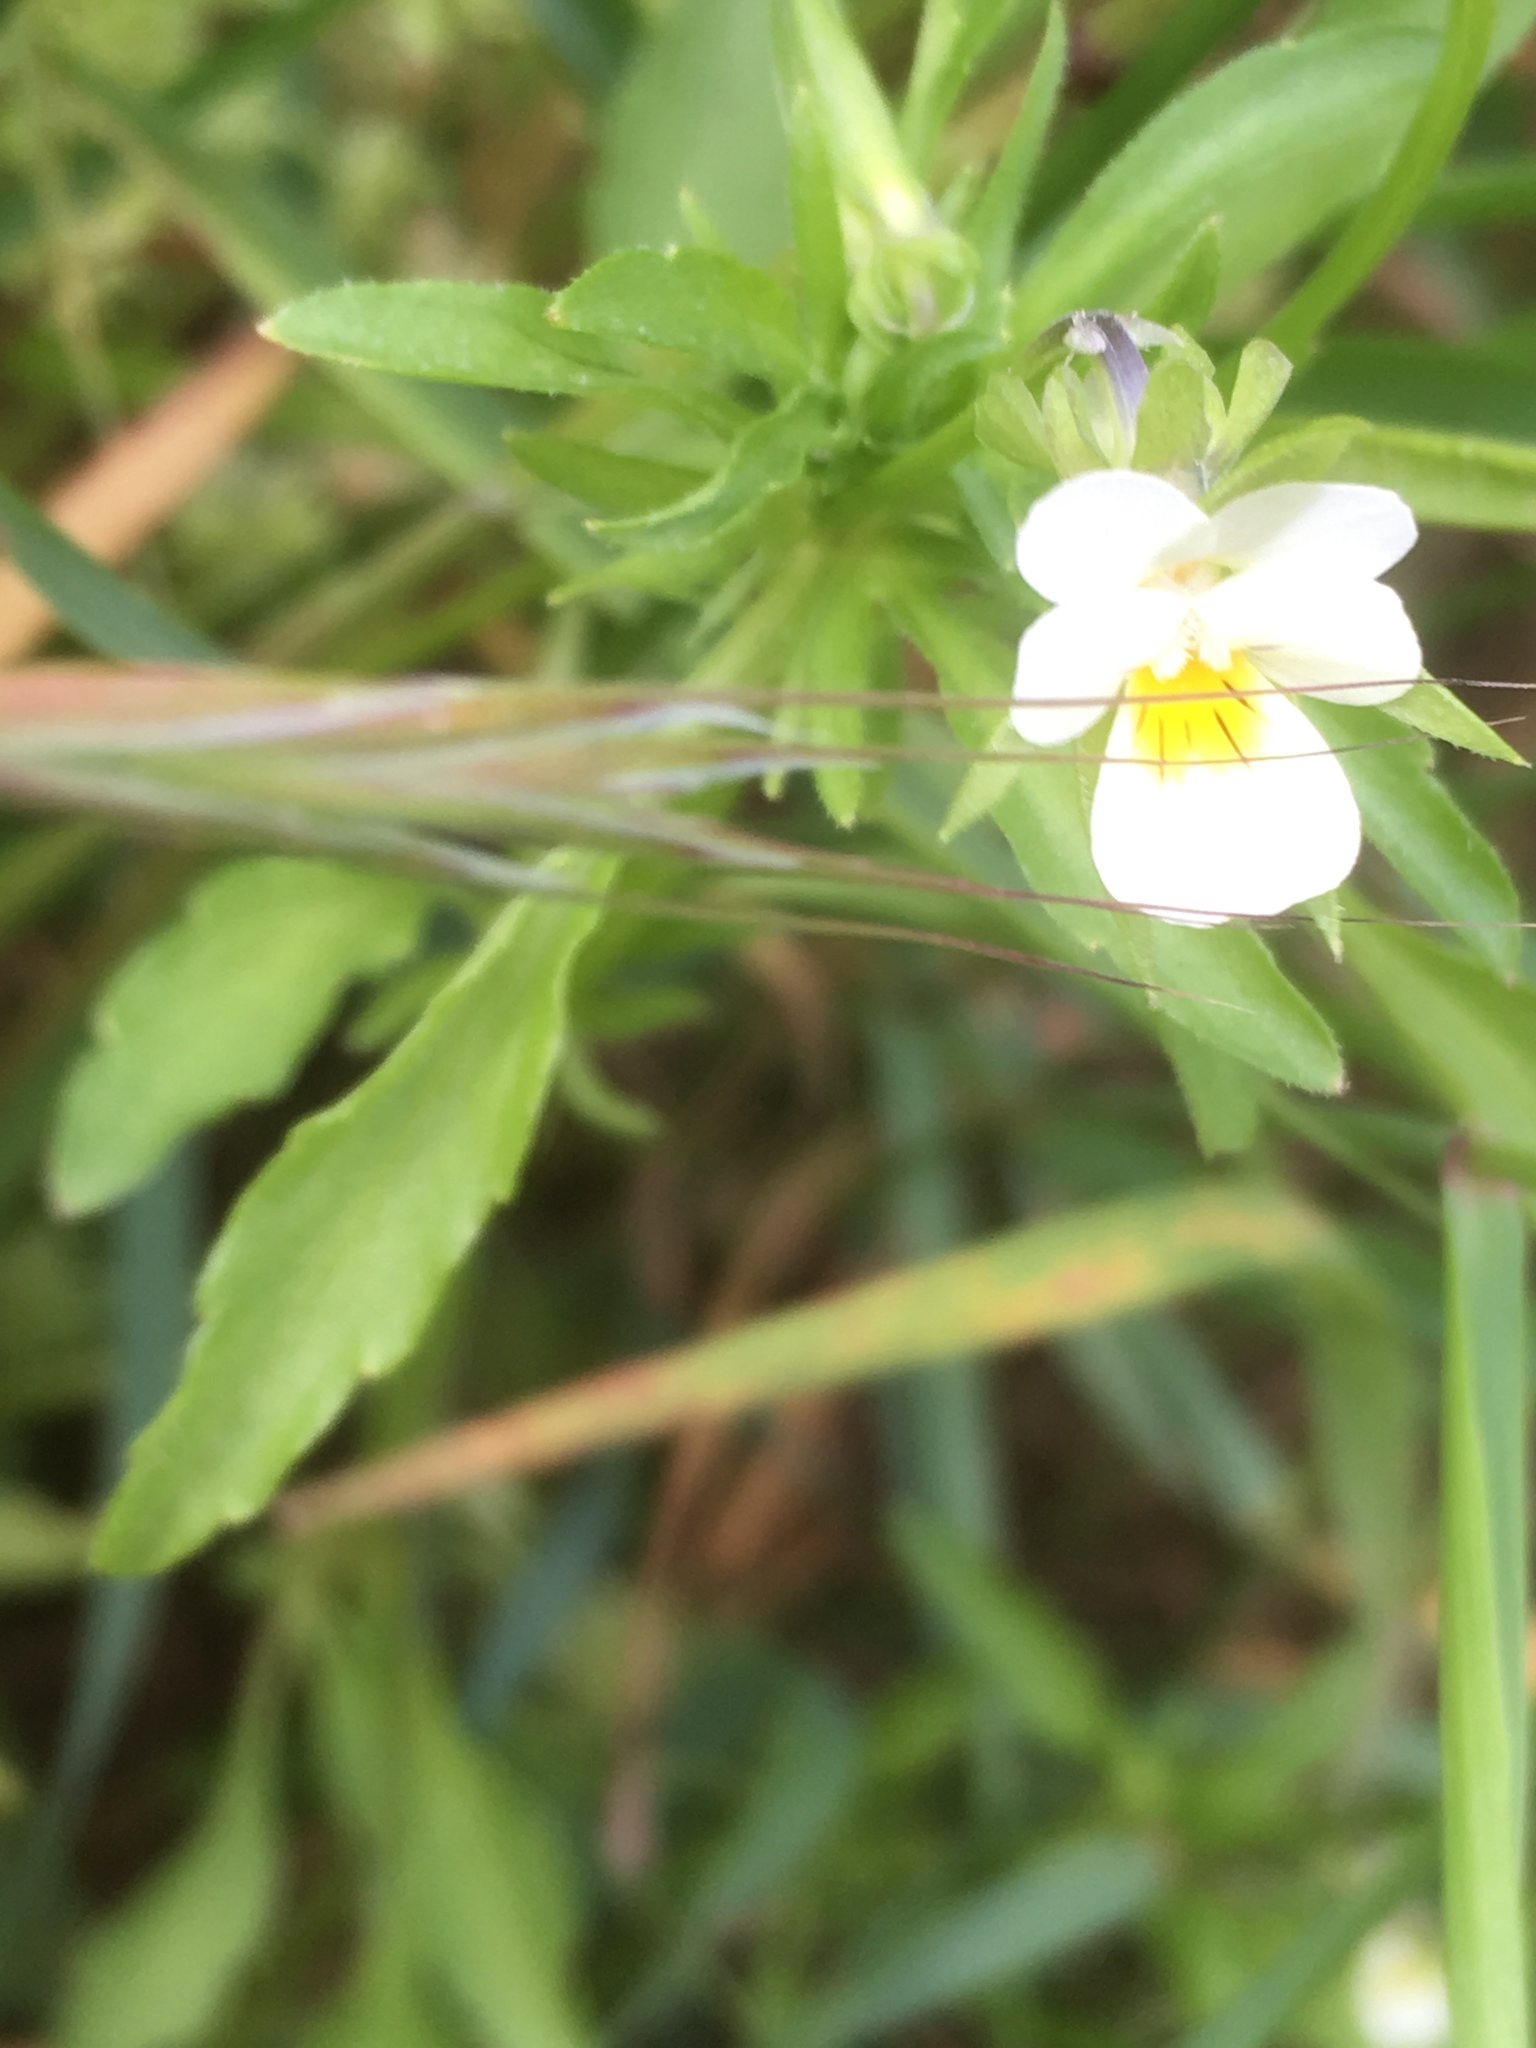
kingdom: Plantae
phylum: Tracheophyta
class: Magnoliopsida
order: Malpighiales
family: Violaceae
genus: Viola
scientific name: Viola arvensis
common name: Field pansy
